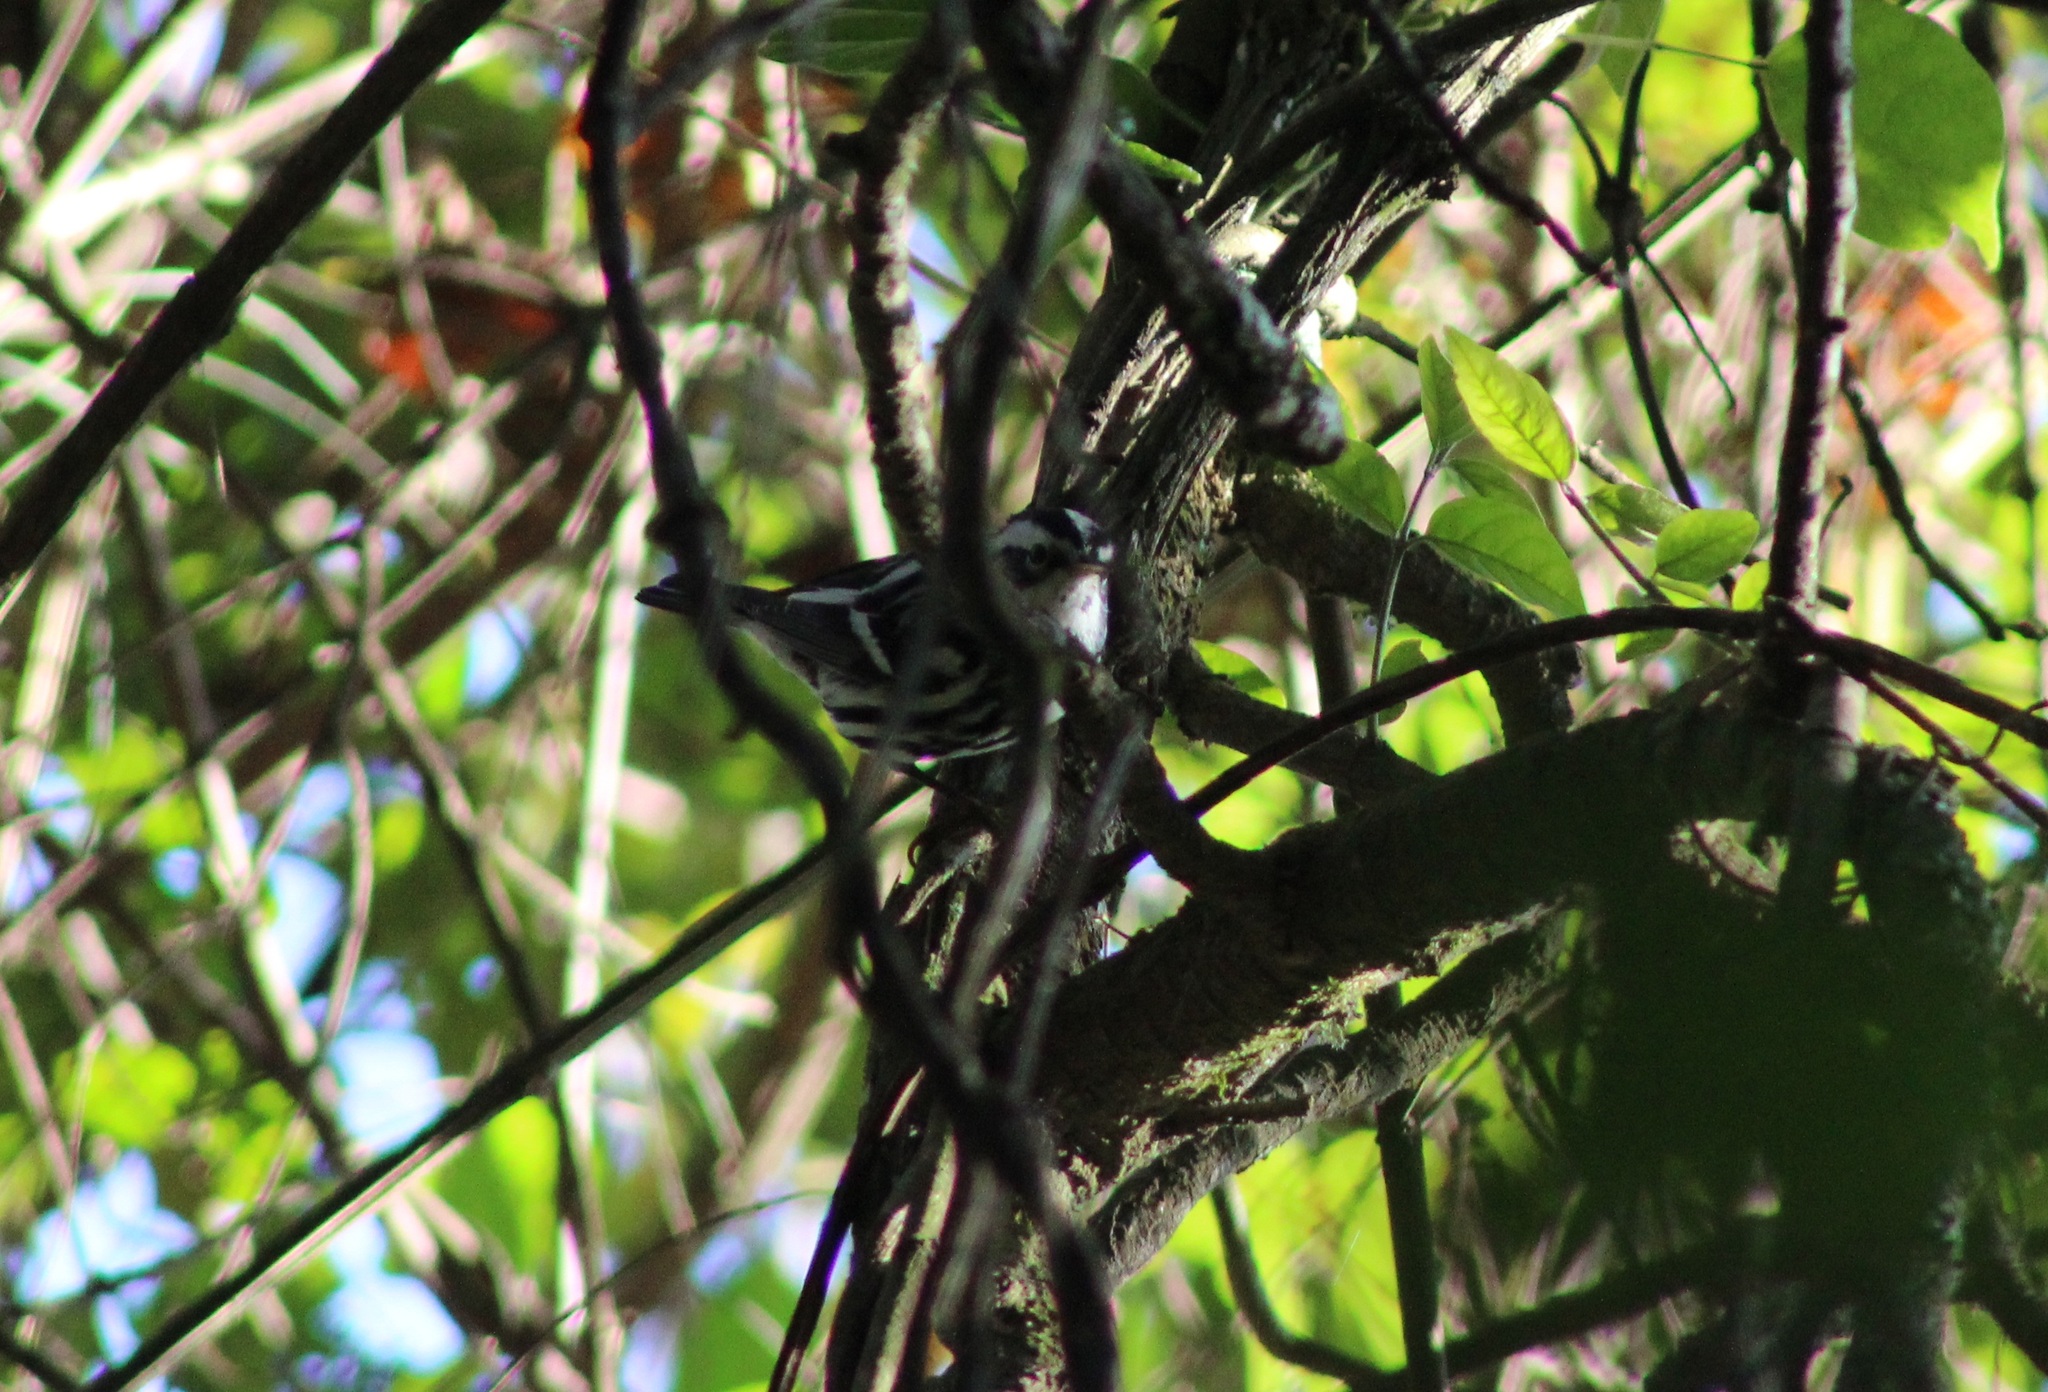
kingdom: Animalia
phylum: Chordata
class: Aves
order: Passeriformes
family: Parulidae
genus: Mniotilta
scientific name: Mniotilta varia
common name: Black-and-white warbler
